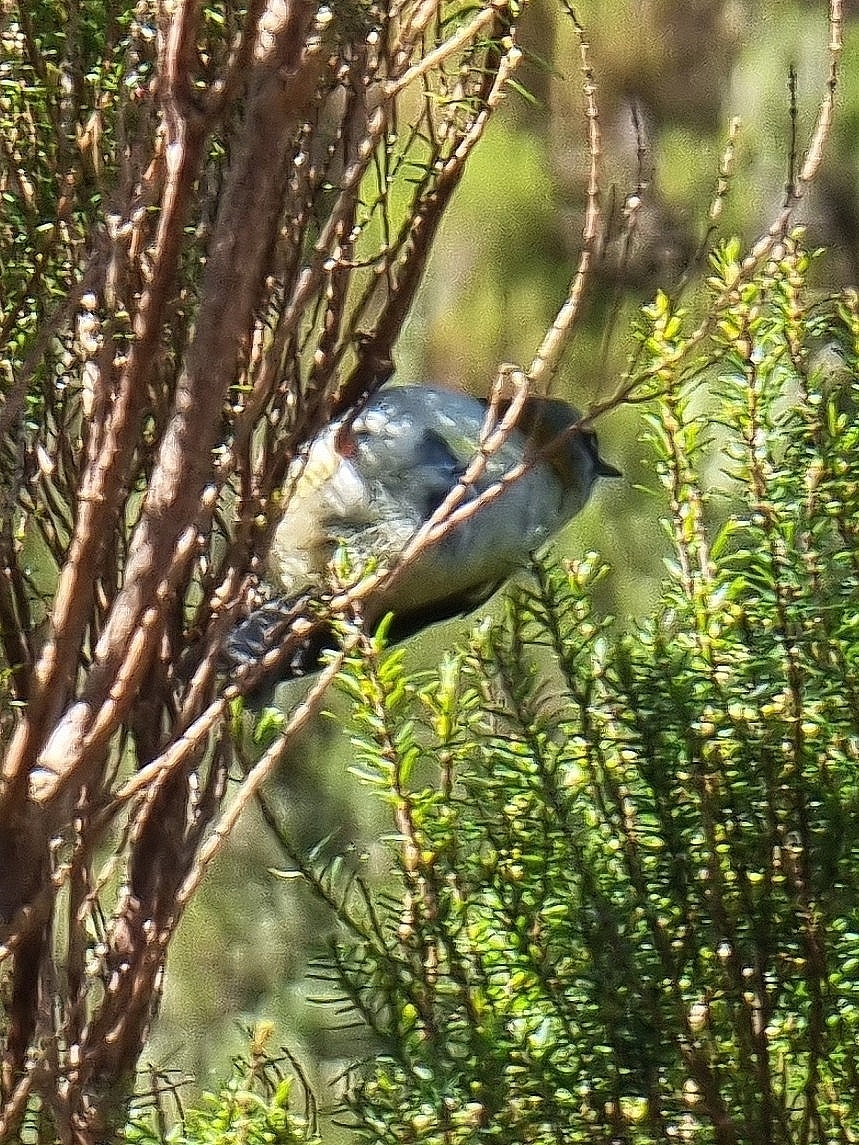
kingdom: Animalia
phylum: Chordata
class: Aves
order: Passeriformes
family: Regulidae
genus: Regulus
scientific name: Regulus madeirensis
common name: Madeira firecrest
